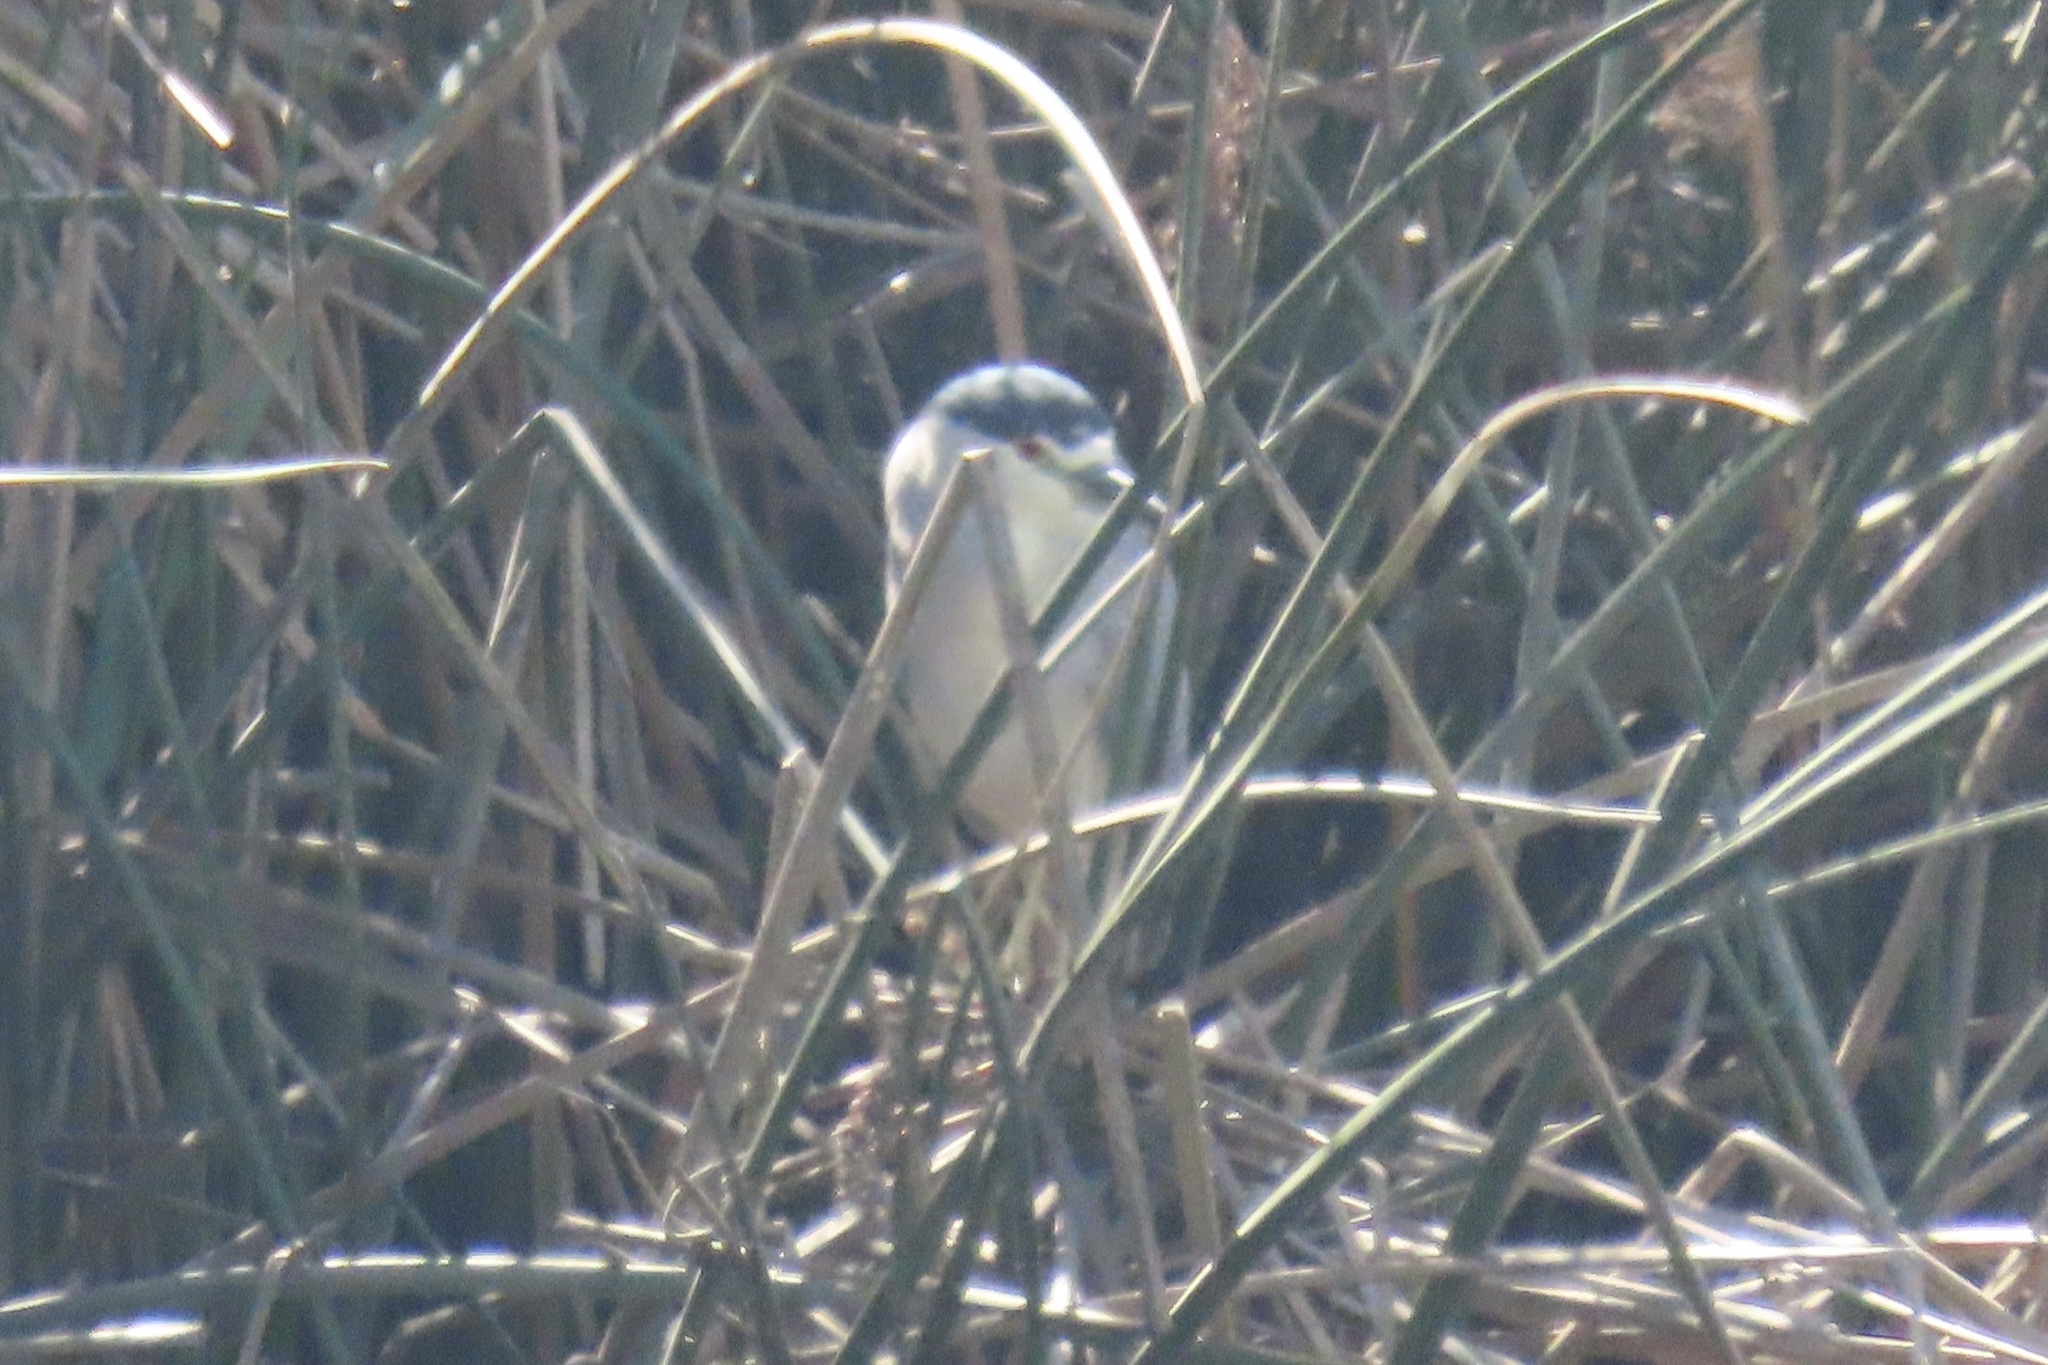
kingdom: Animalia
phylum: Chordata
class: Aves
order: Pelecaniformes
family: Ardeidae
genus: Nycticorax
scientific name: Nycticorax nycticorax
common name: Black-crowned night heron
